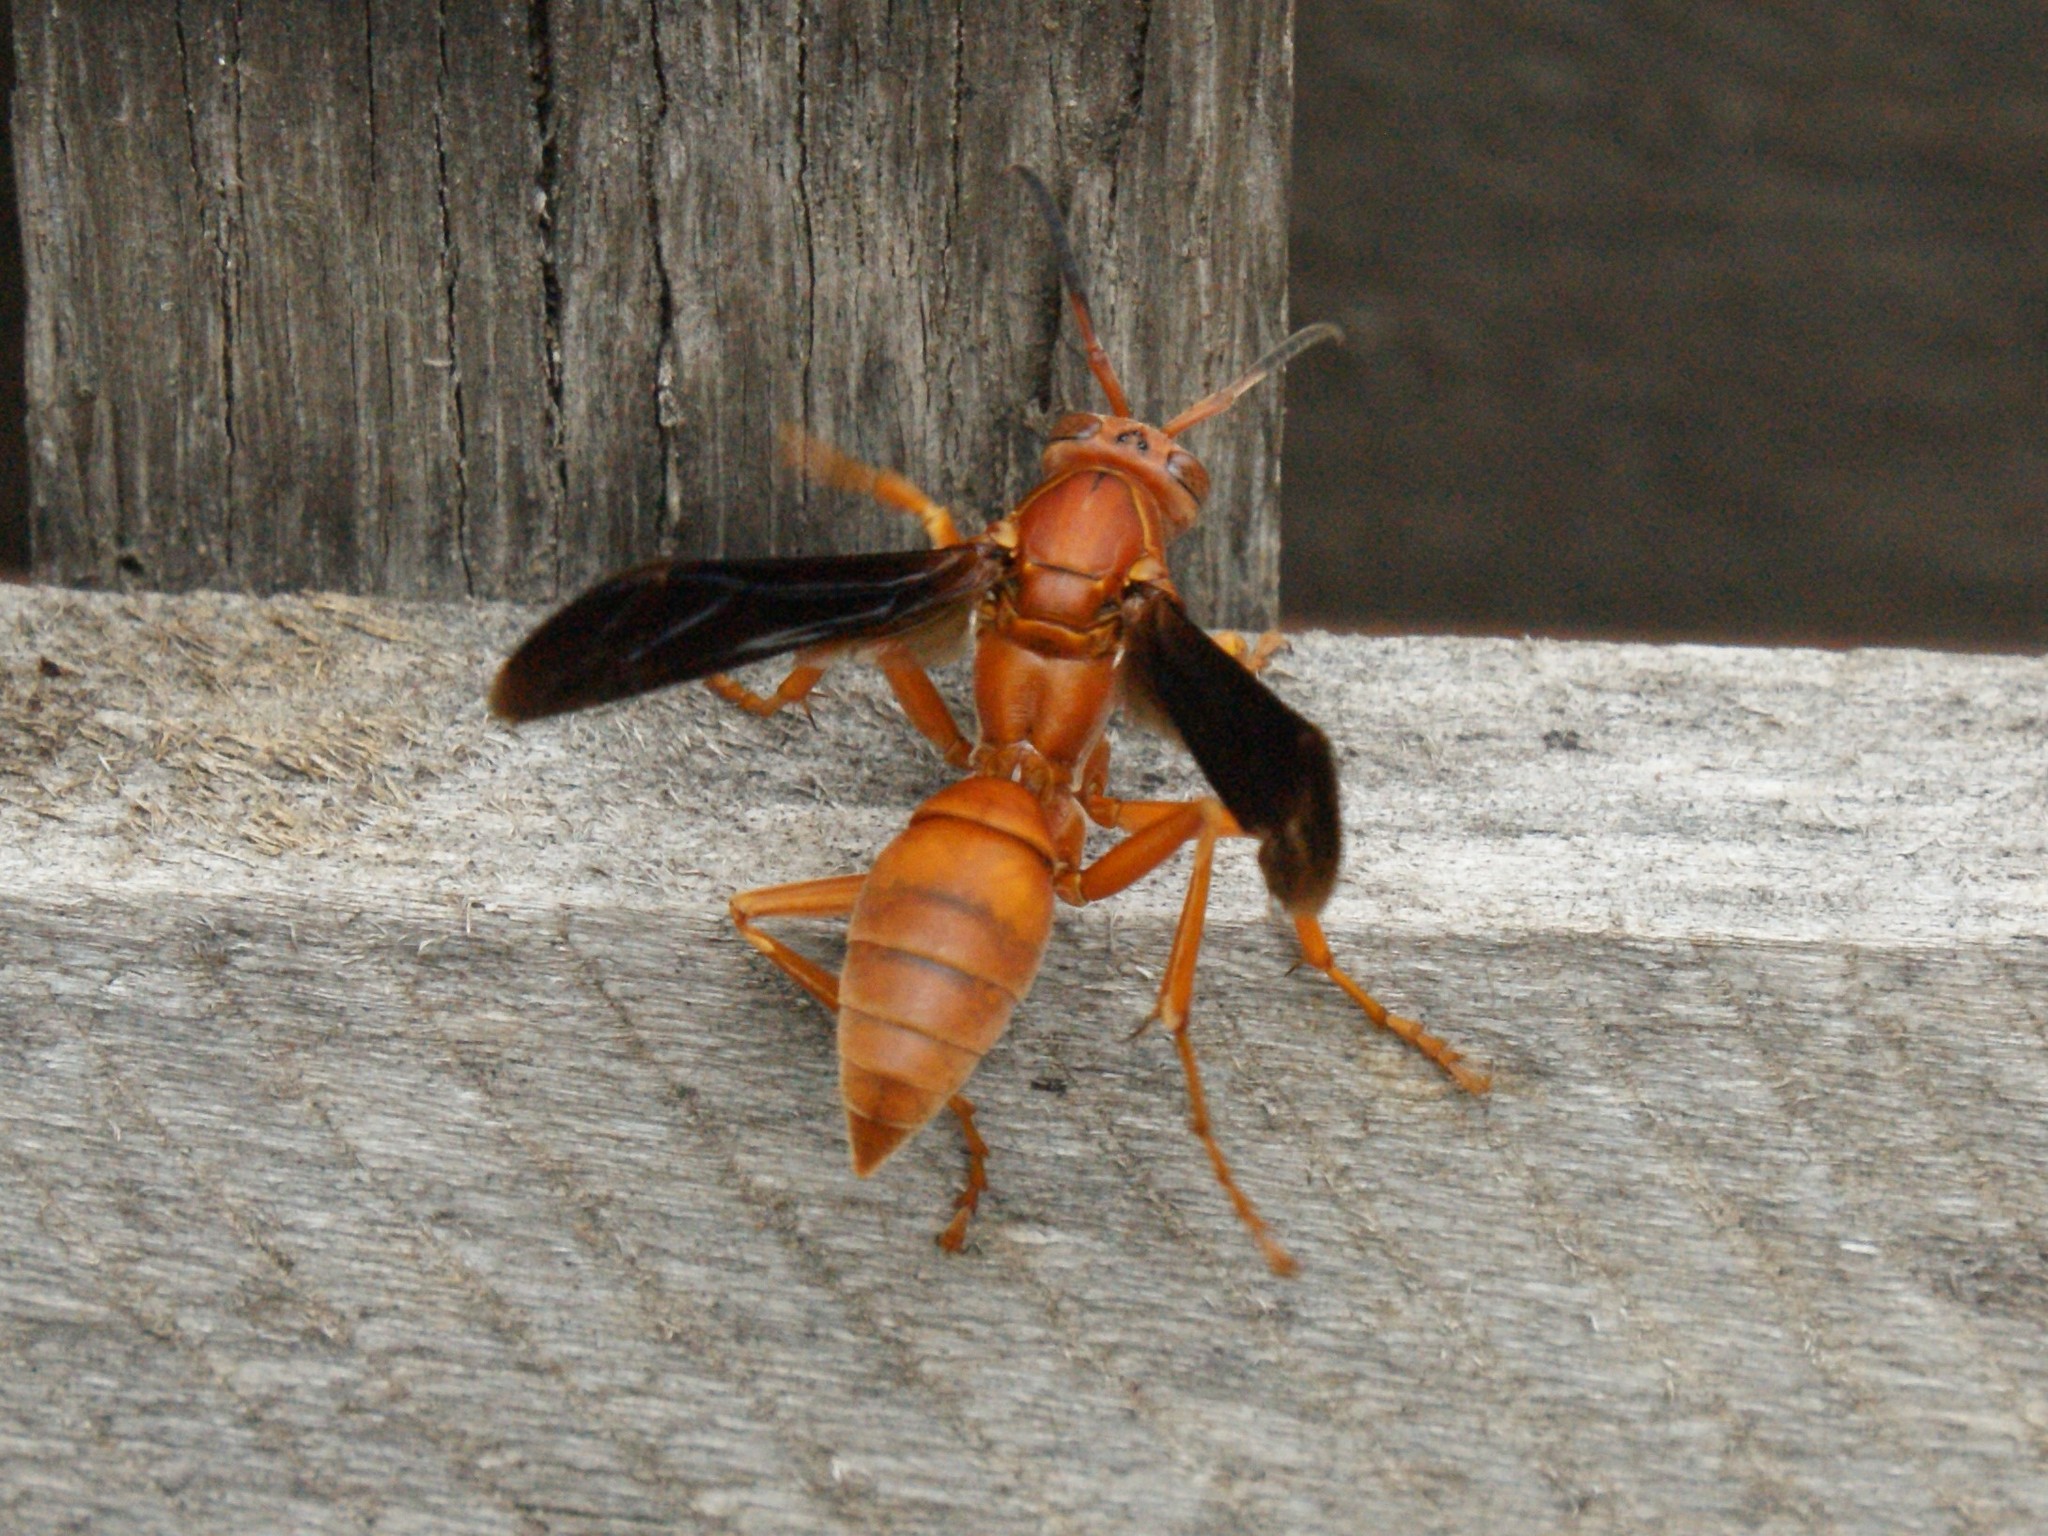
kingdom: Animalia
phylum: Arthropoda
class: Insecta
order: Hymenoptera
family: Eumenidae
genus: Polistes
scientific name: Polistes carolina
